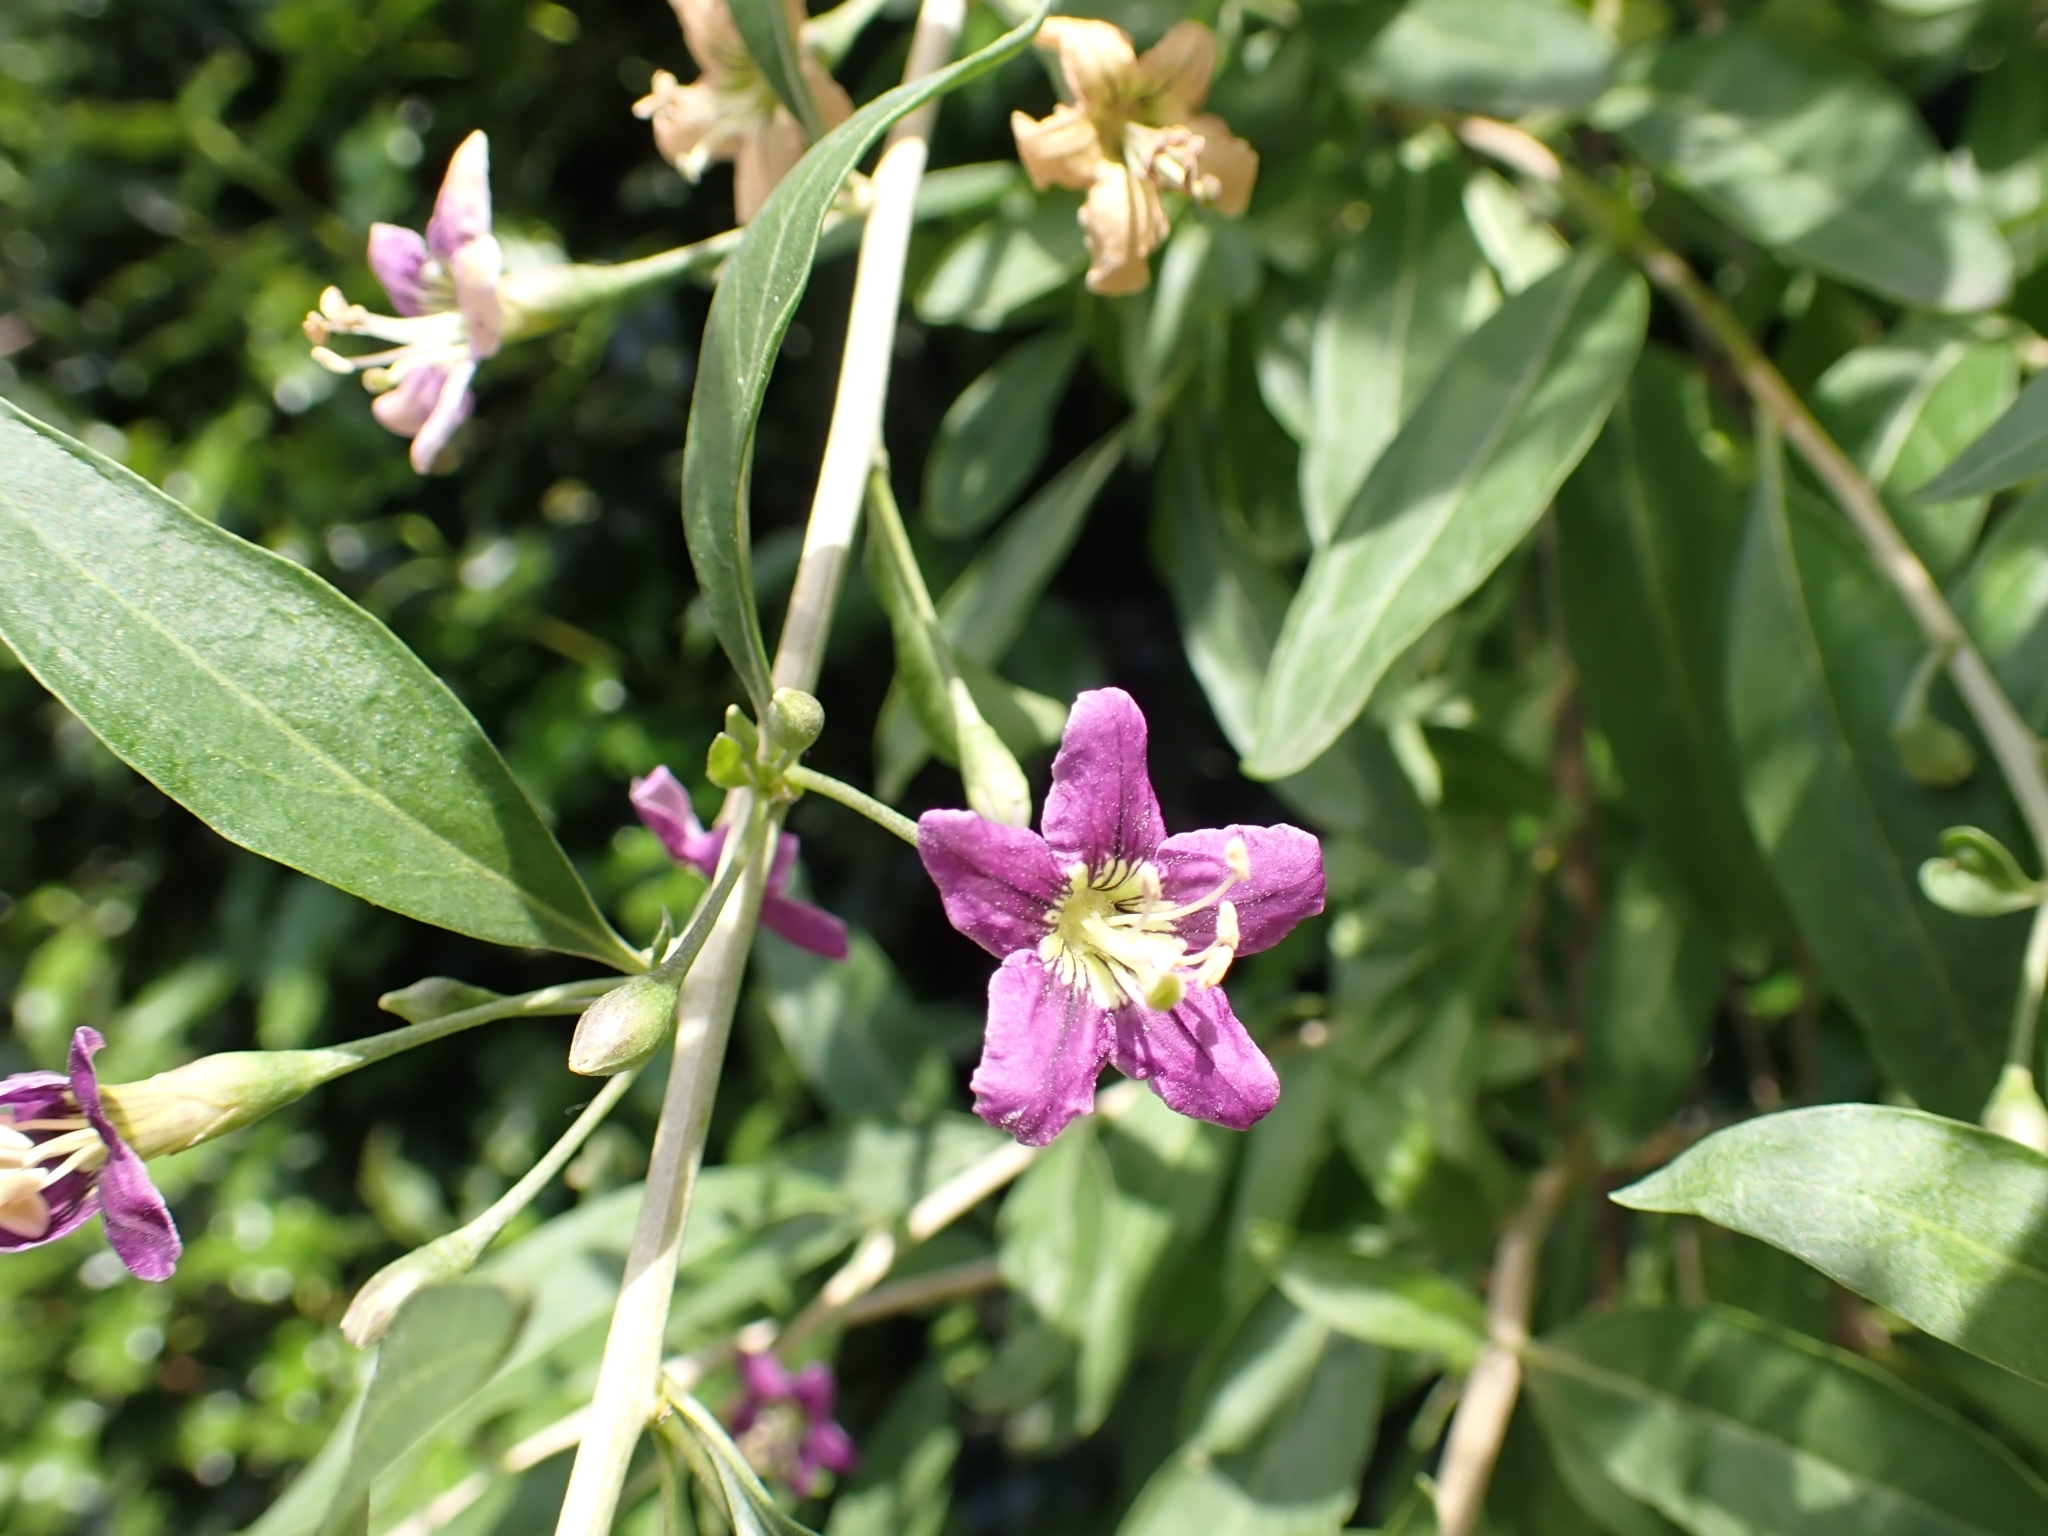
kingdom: Plantae
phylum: Tracheophyta
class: Magnoliopsida
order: Solanales
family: Solanaceae
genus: Lycium
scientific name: Lycium barbarum
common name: Duke of argyll's teaplant
